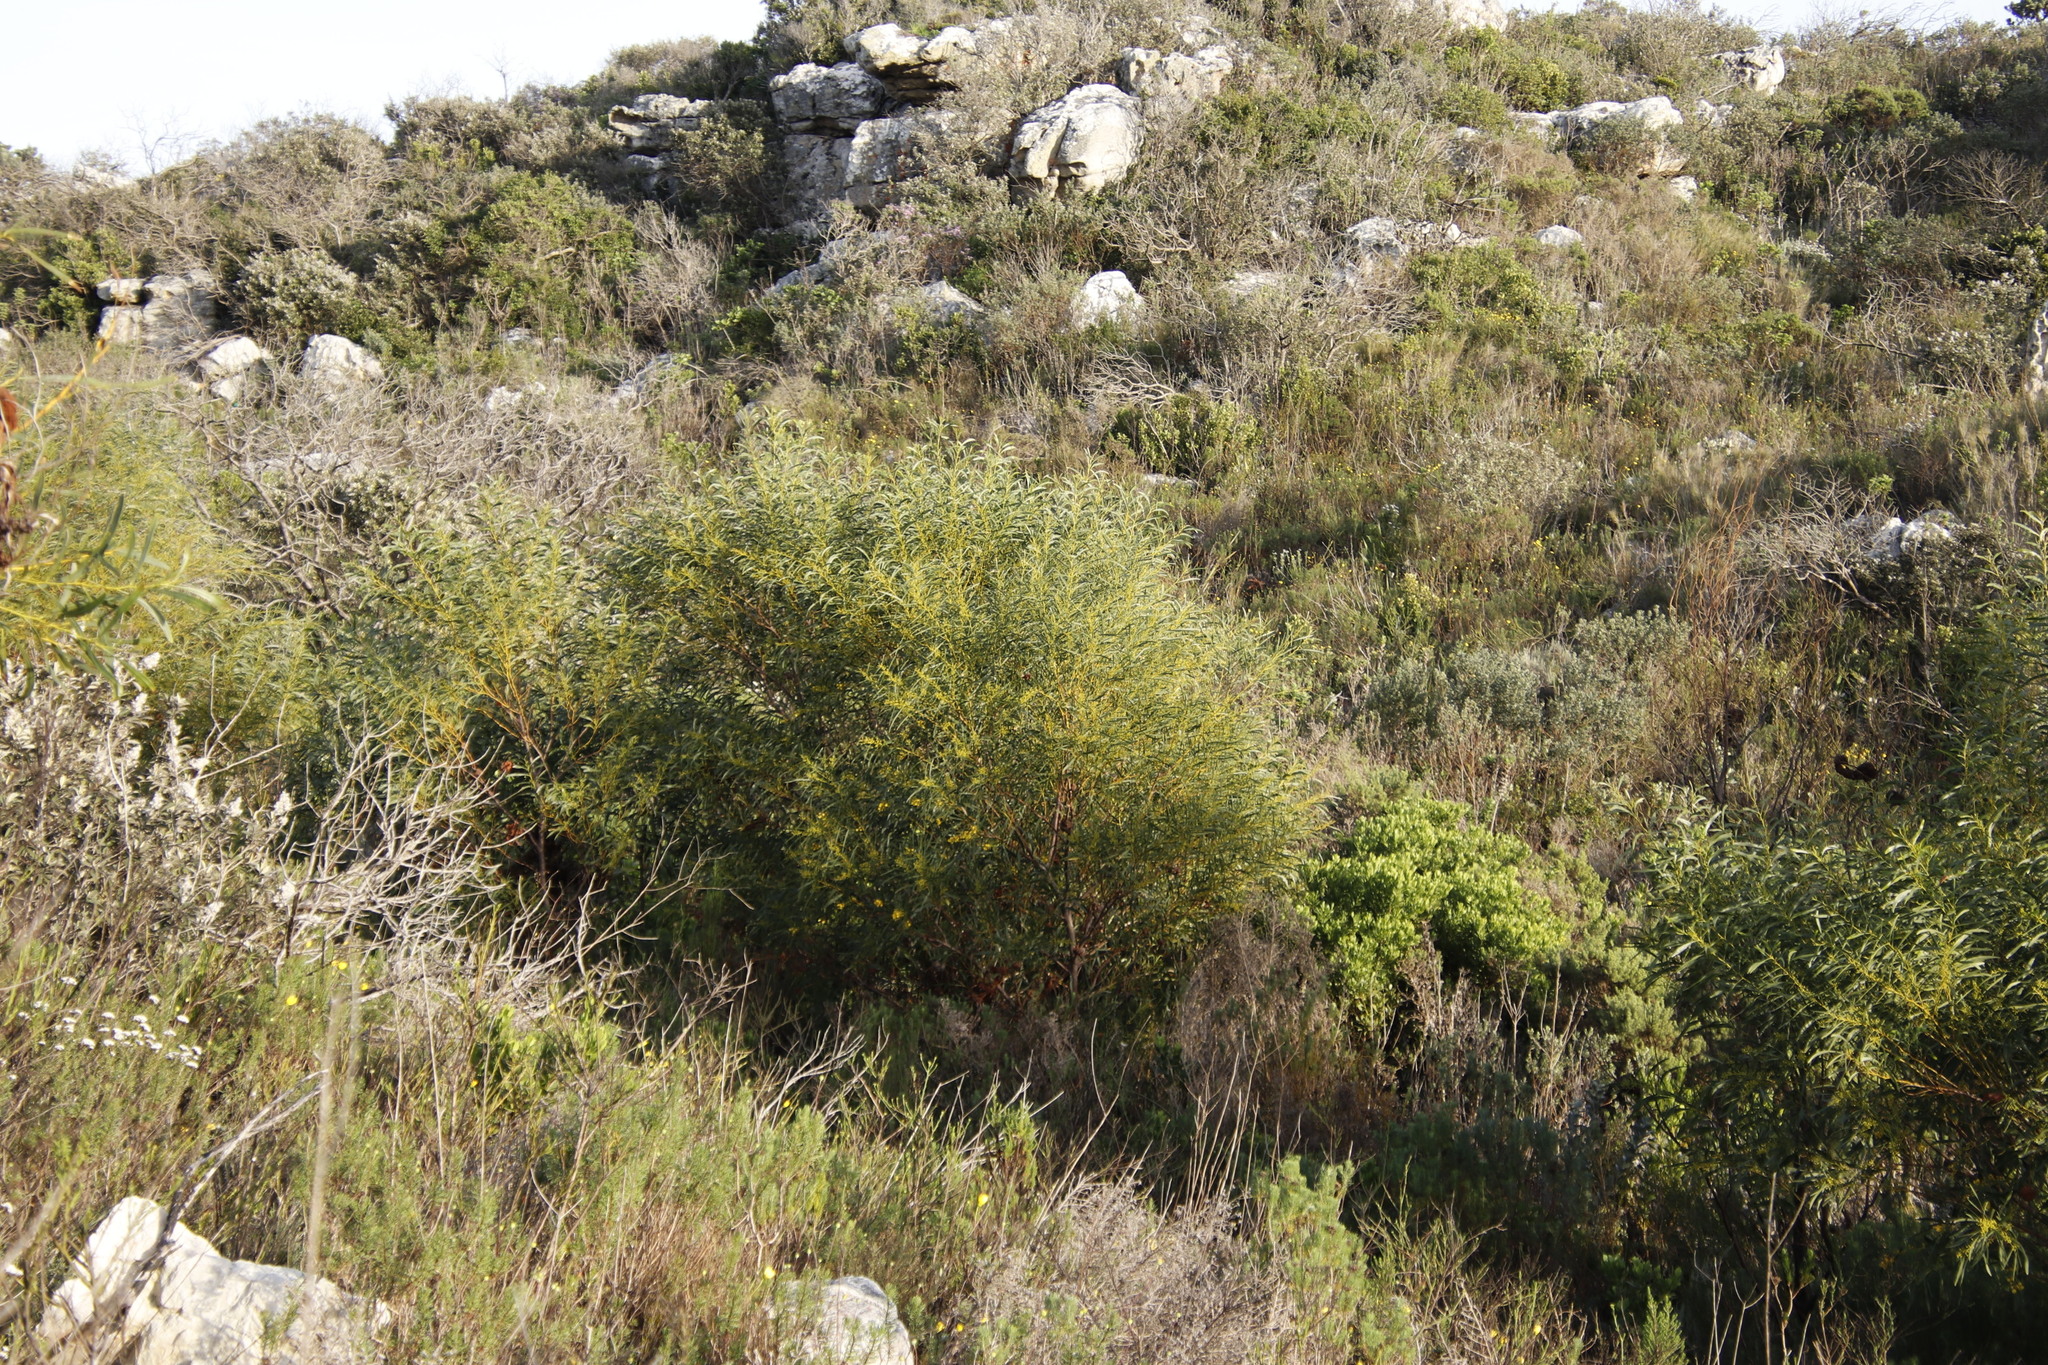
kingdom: Plantae
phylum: Tracheophyta
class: Magnoliopsida
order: Fabales
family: Fabaceae
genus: Acacia
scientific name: Acacia saligna
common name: Orange wattle
